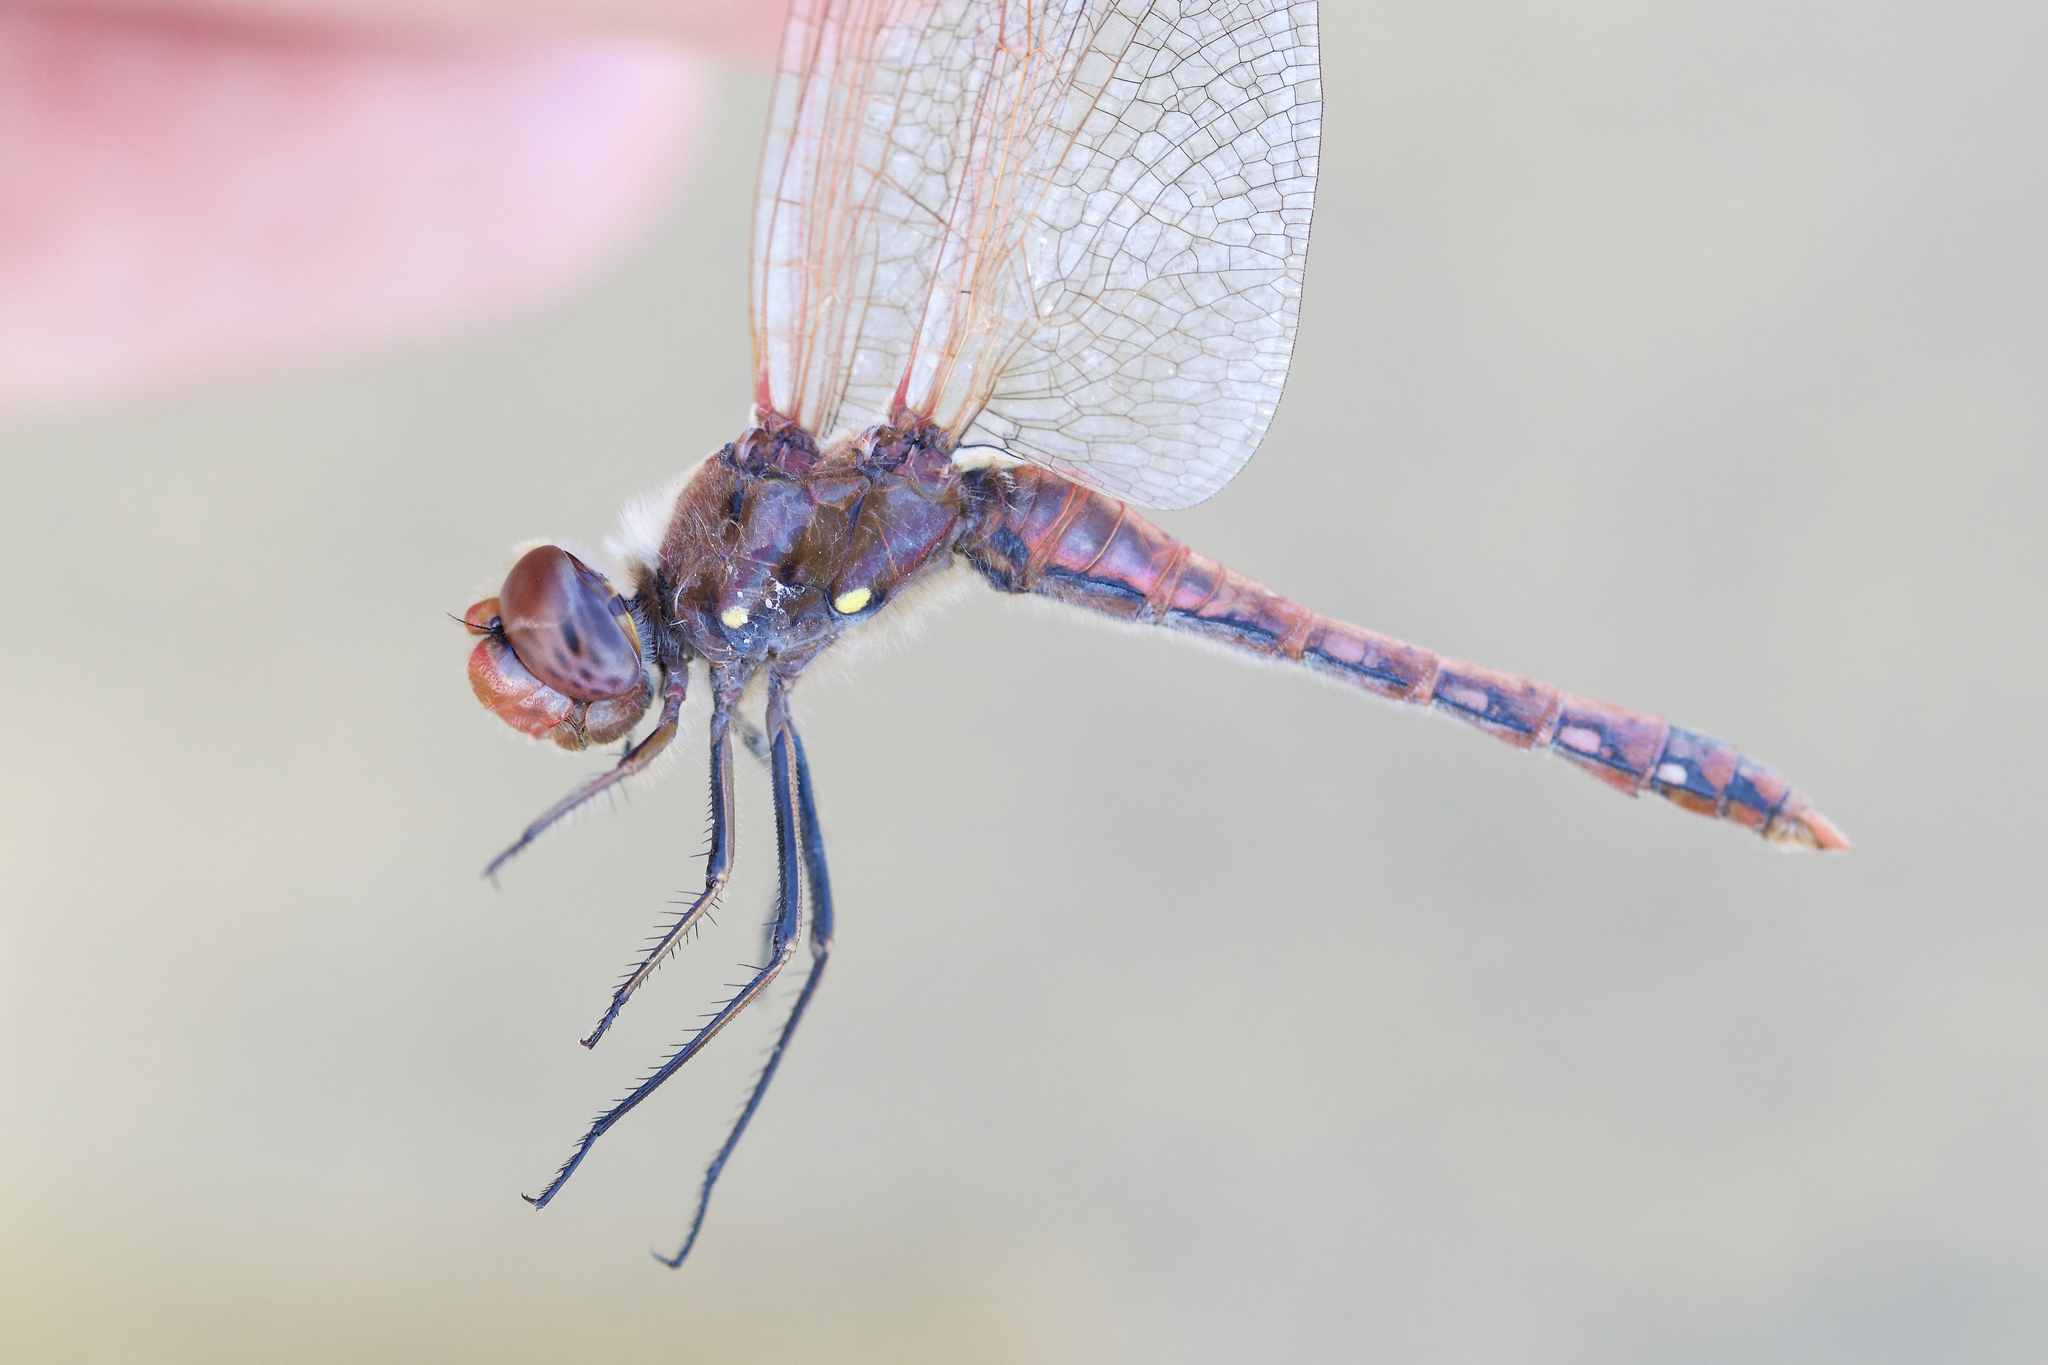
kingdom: Animalia
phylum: Arthropoda
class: Insecta
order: Odonata
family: Libellulidae
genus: Sympetrum
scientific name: Sympetrum corruptum
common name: Variegated meadowhawk
